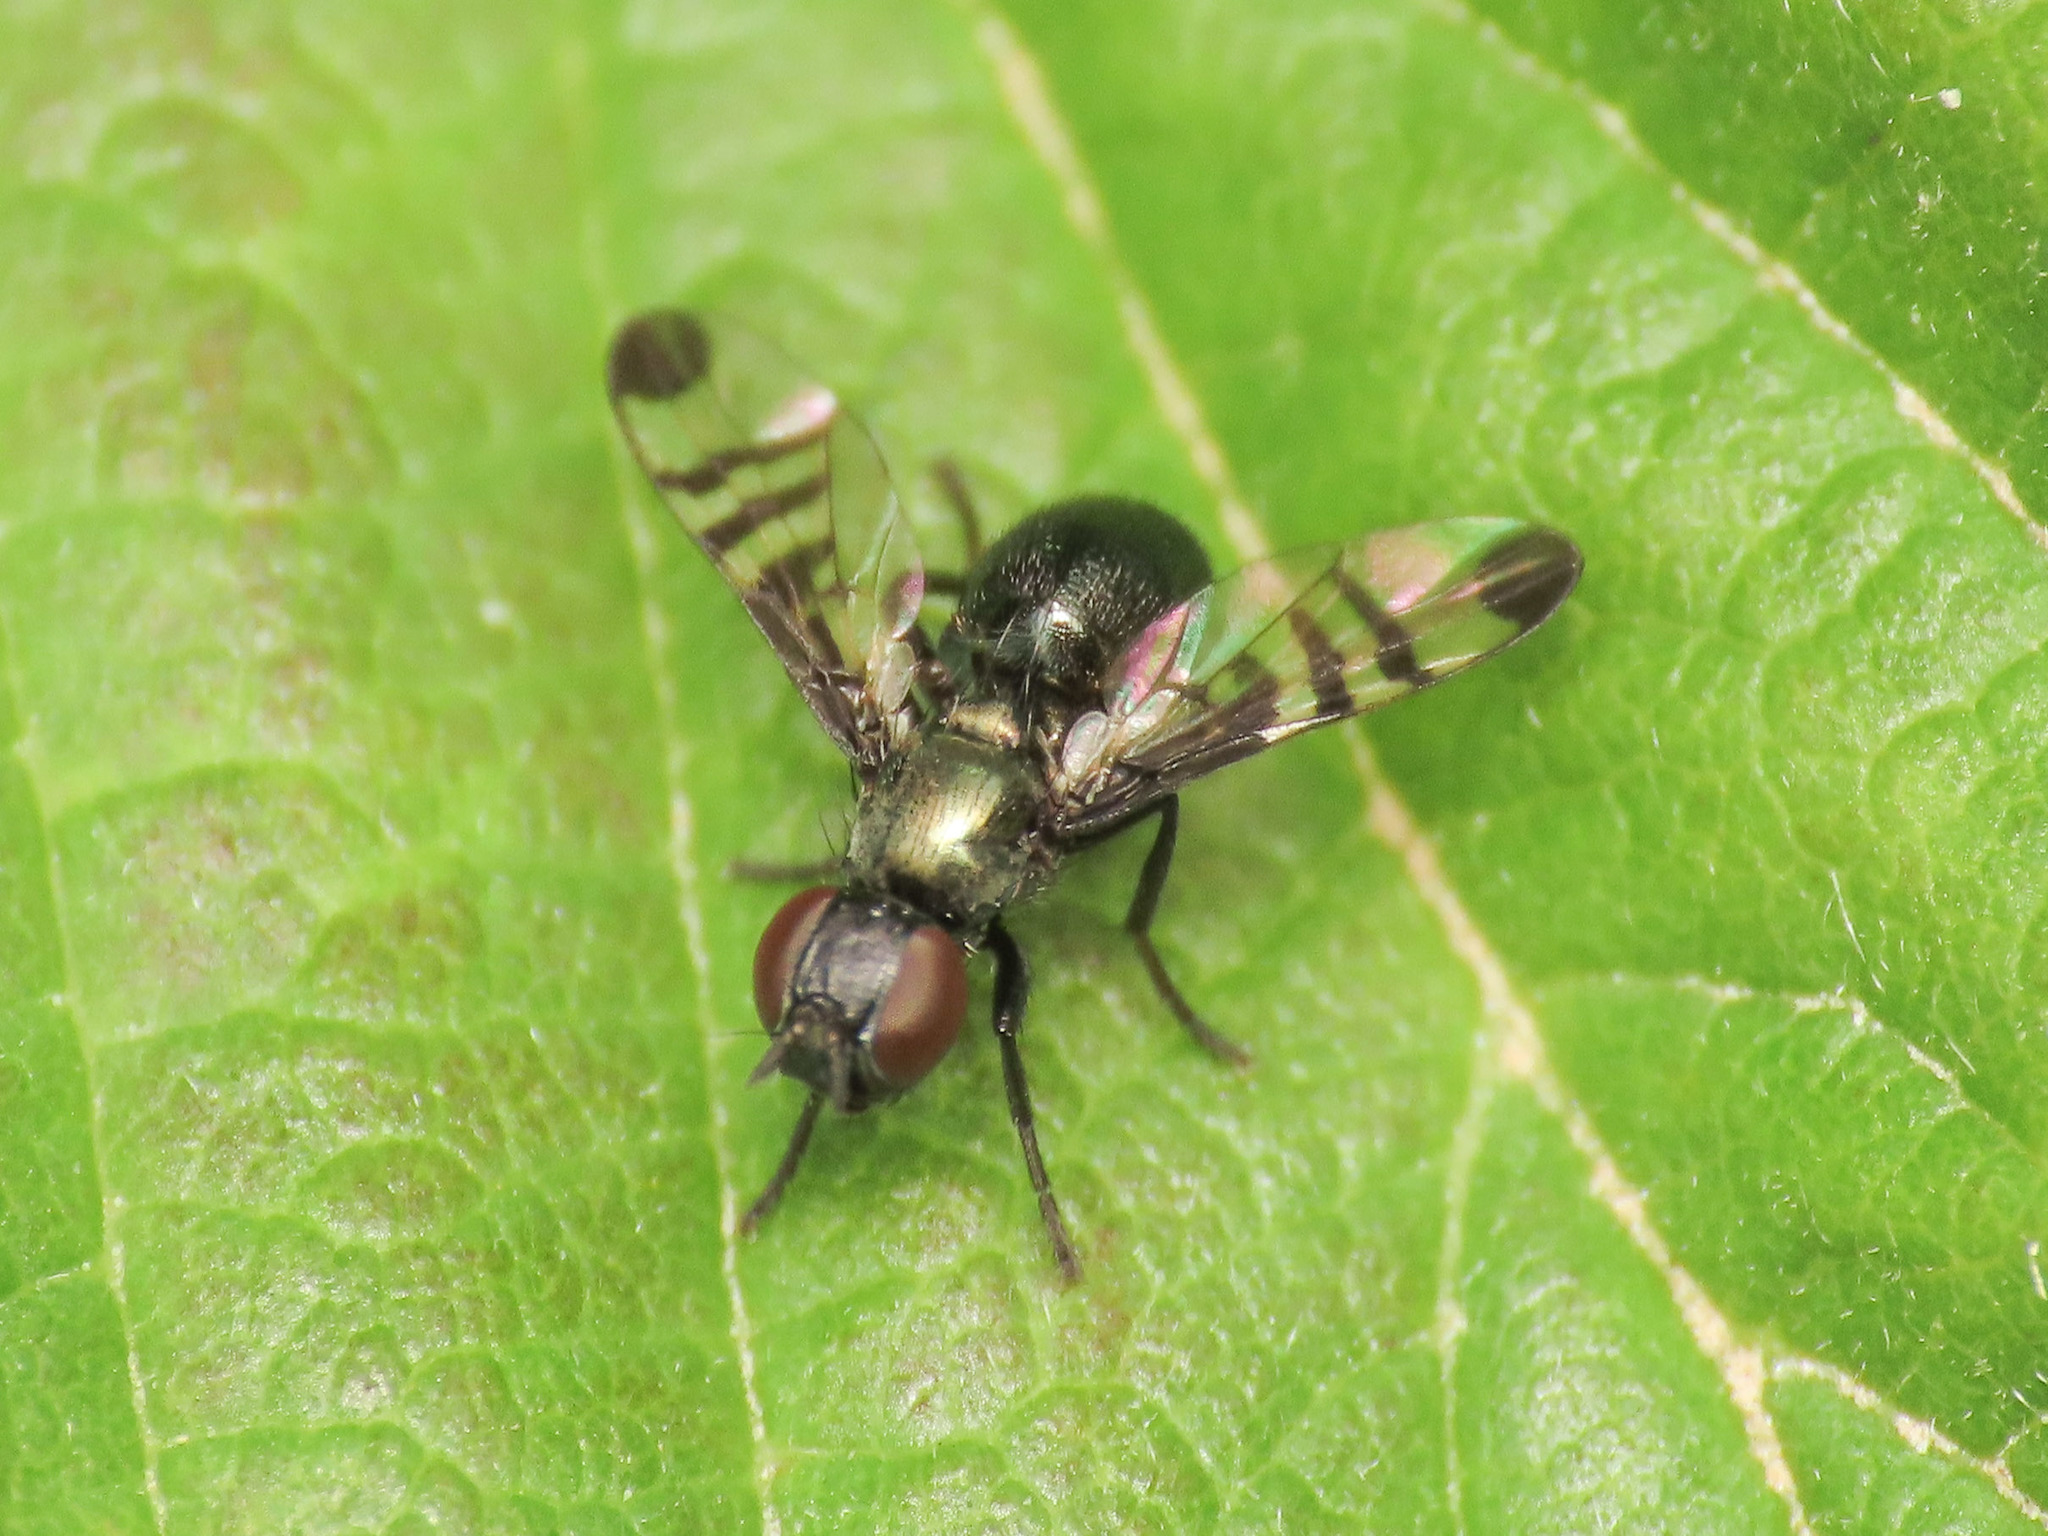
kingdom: Animalia
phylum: Arthropoda
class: Insecta
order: Diptera
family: Platystomatidae
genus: Rivellia
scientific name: Rivellia syngenesiae
